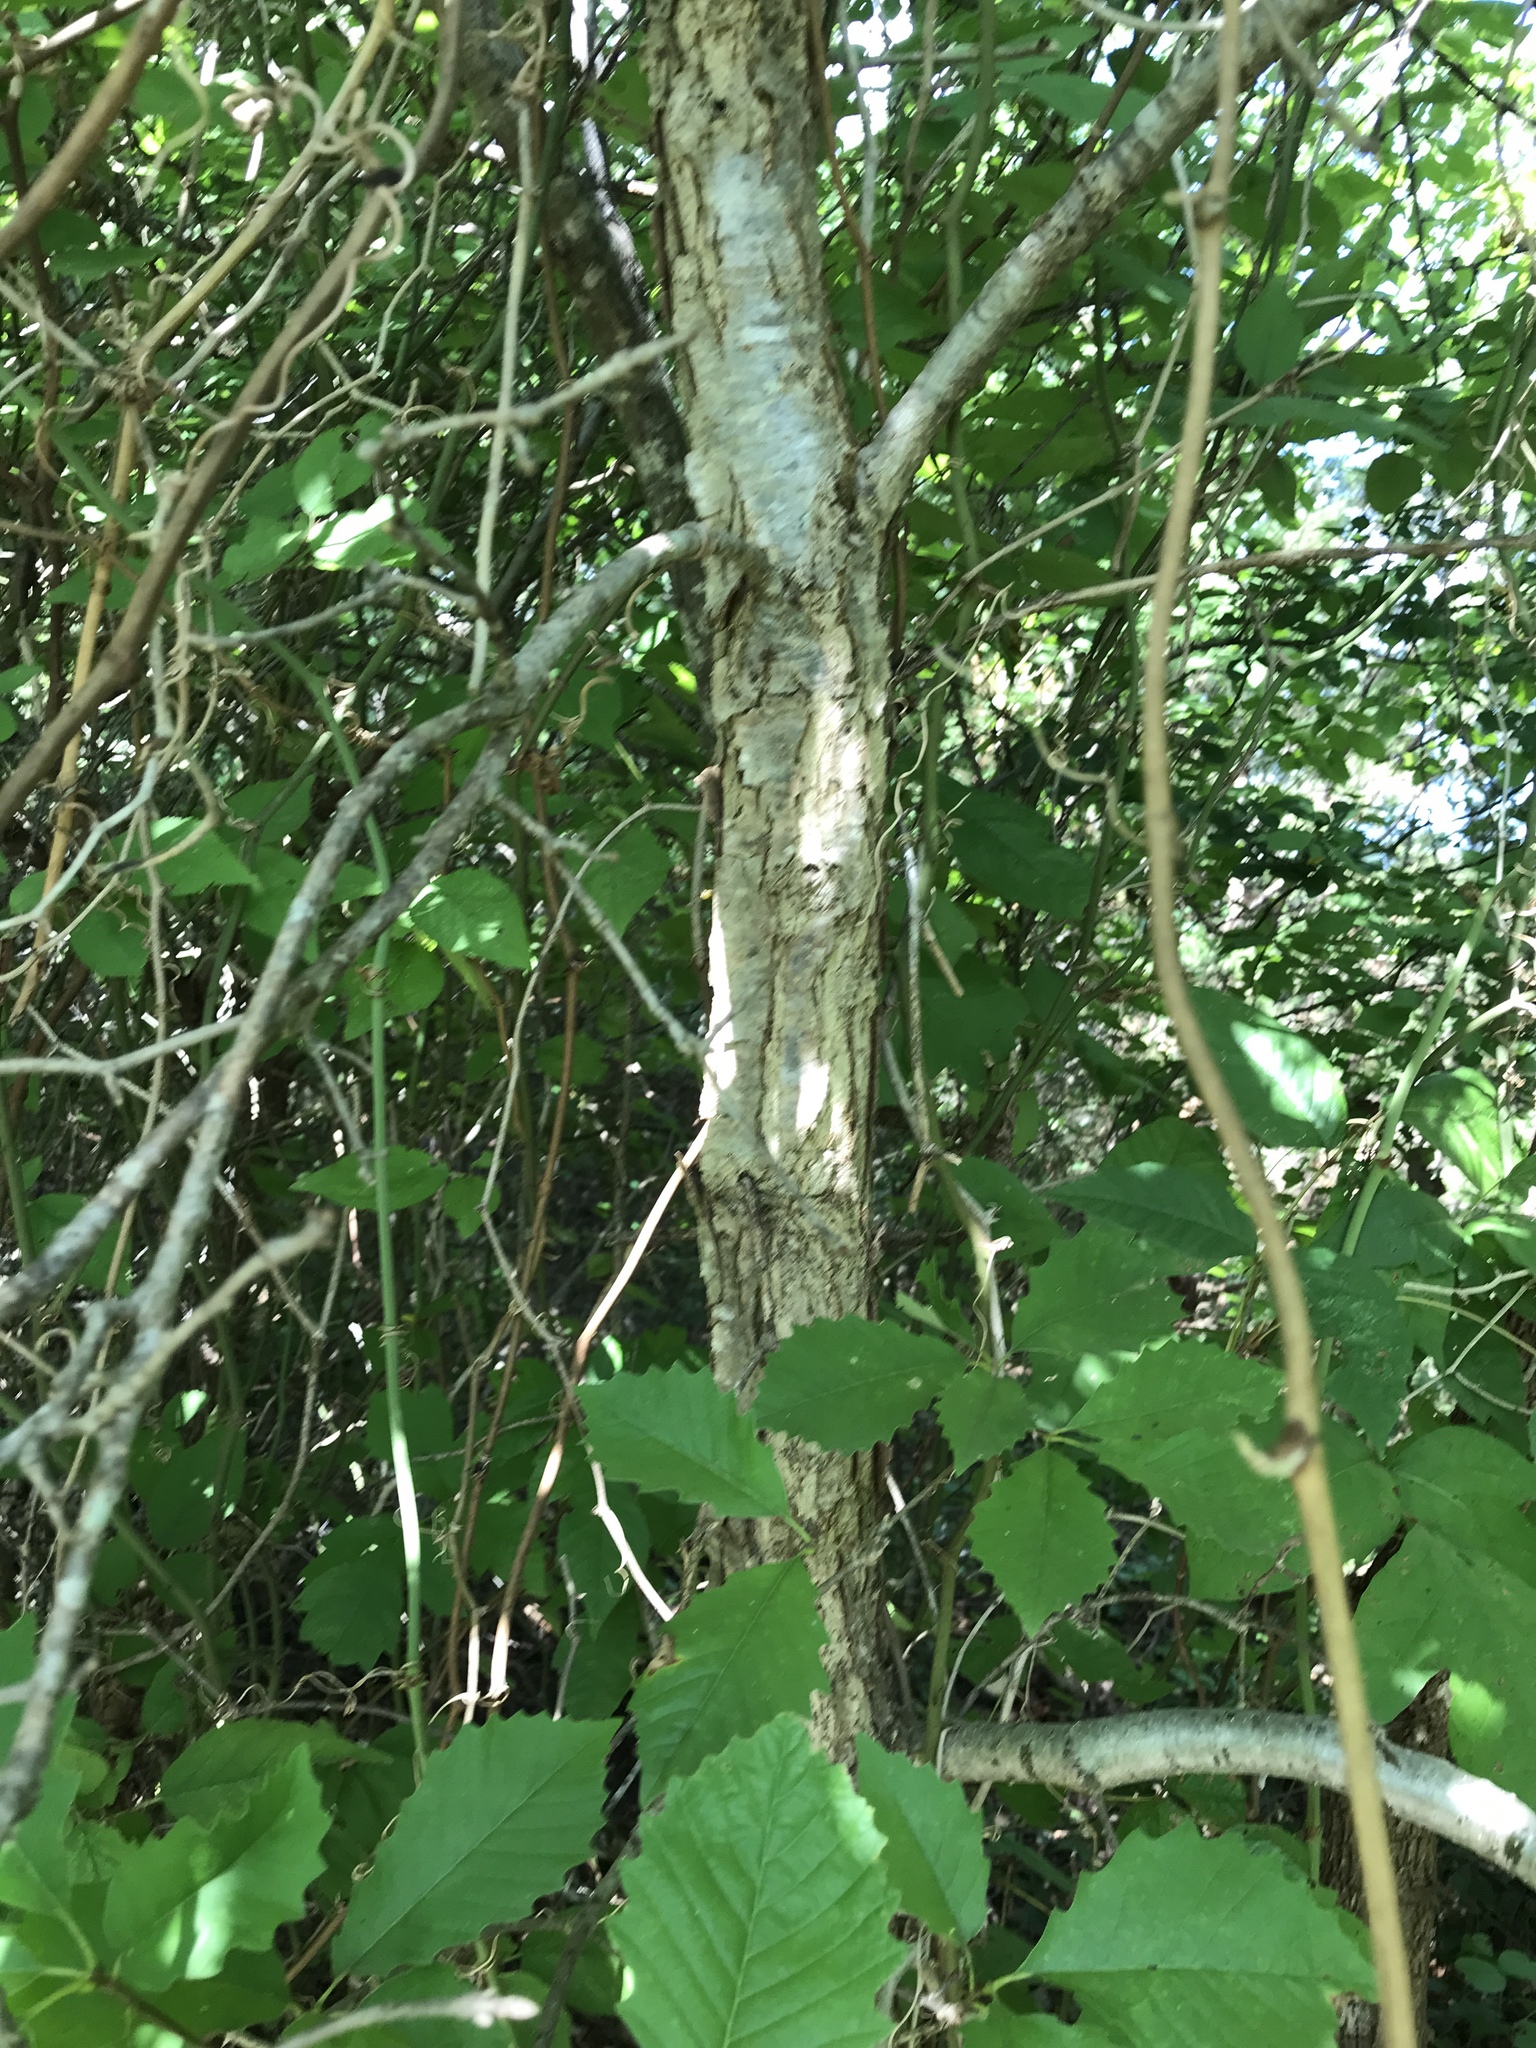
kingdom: Plantae
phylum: Tracheophyta
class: Magnoliopsida
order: Fagales
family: Fagaceae
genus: Quercus
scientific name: Quercus muehlenbergii
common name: Chinkapin oak
